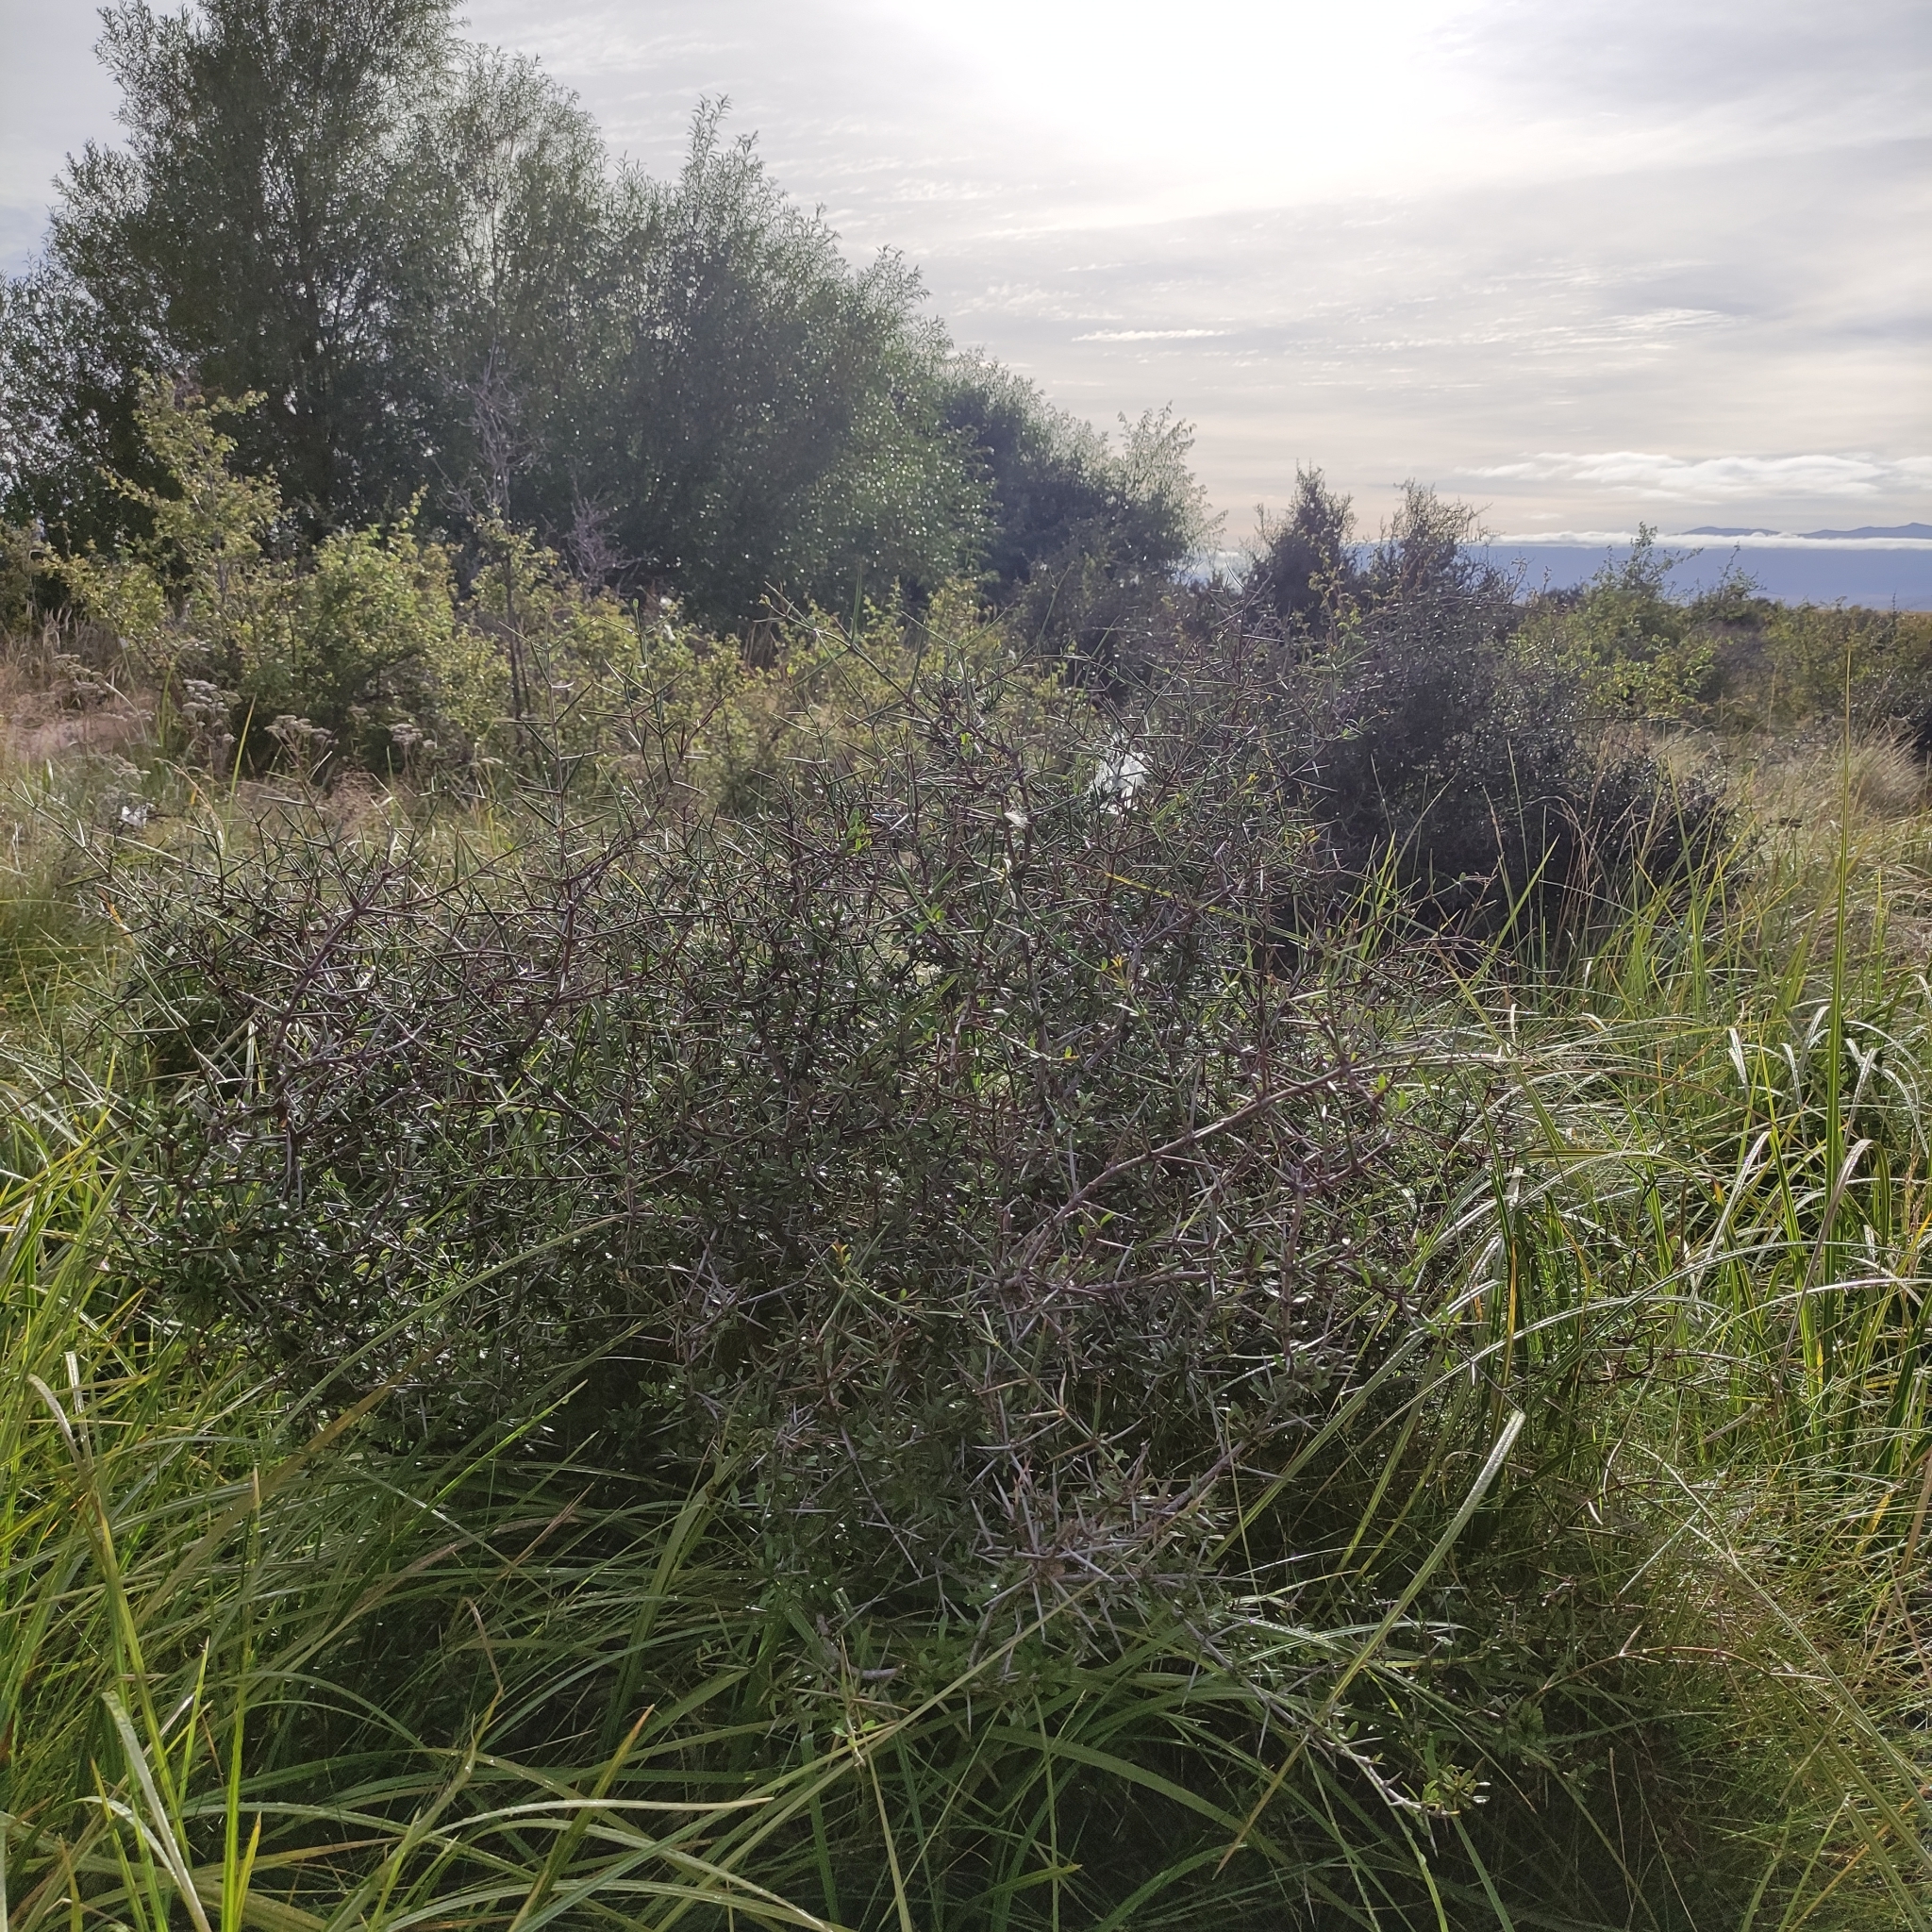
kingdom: Plantae
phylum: Tracheophyta
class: Magnoliopsida
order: Rosales
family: Rhamnaceae
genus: Discaria
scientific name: Discaria toumatou
